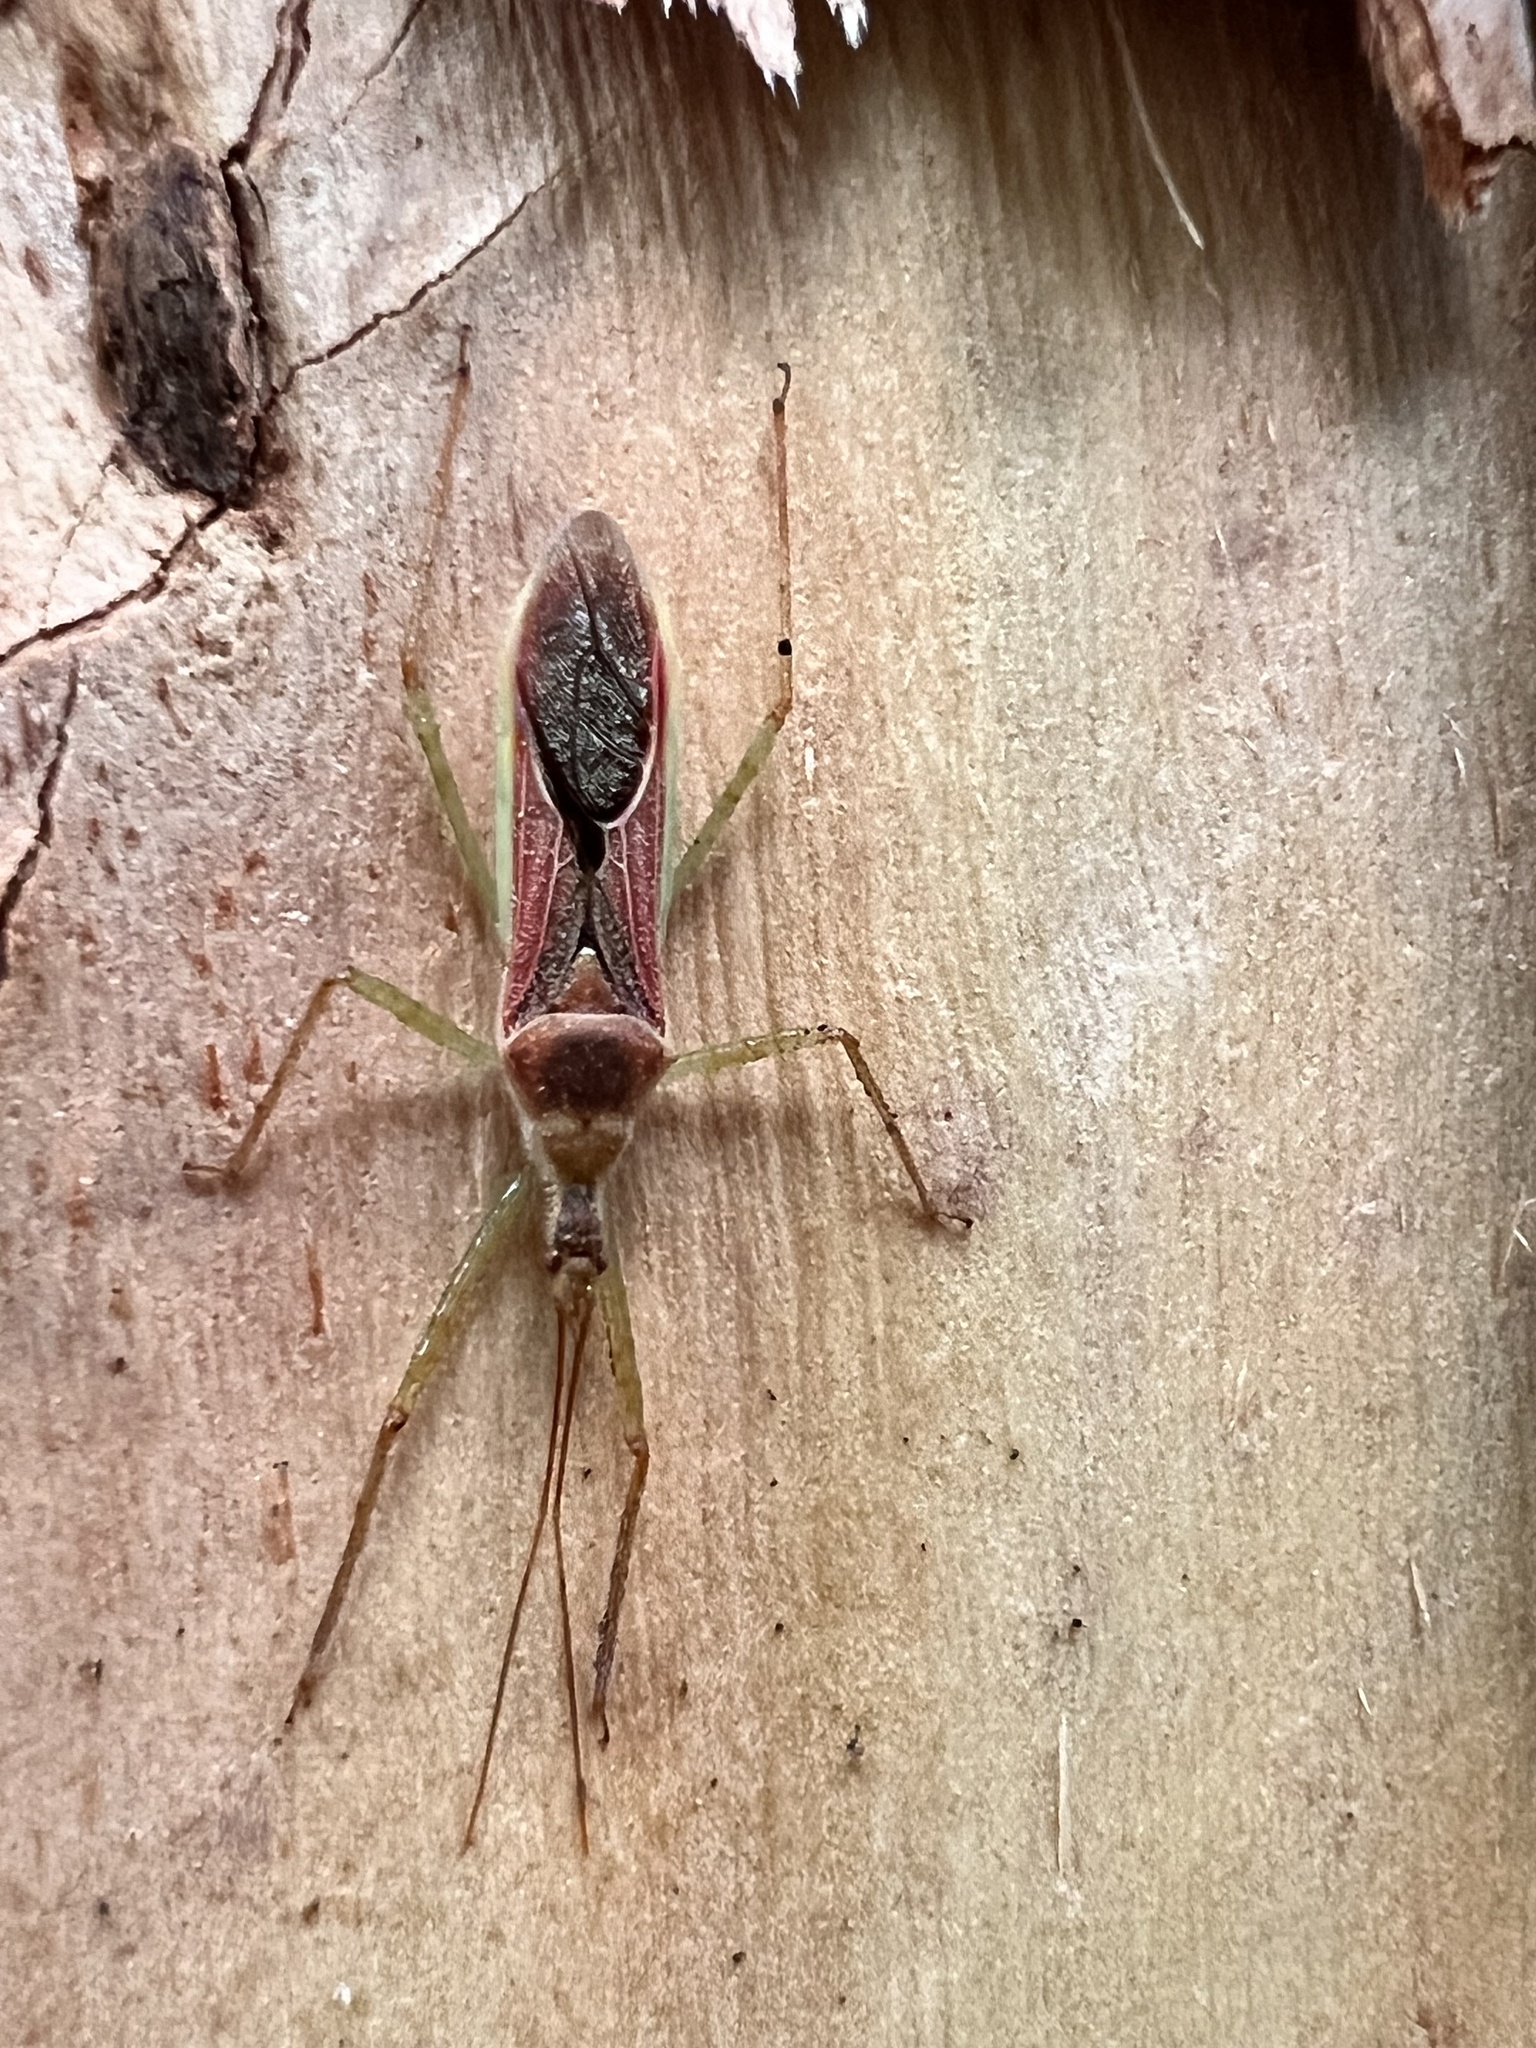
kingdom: Animalia
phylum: Arthropoda
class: Insecta
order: Hemiptera
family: Reduviidae
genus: Zelus
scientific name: Zelus renardii
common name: Assassin bug
